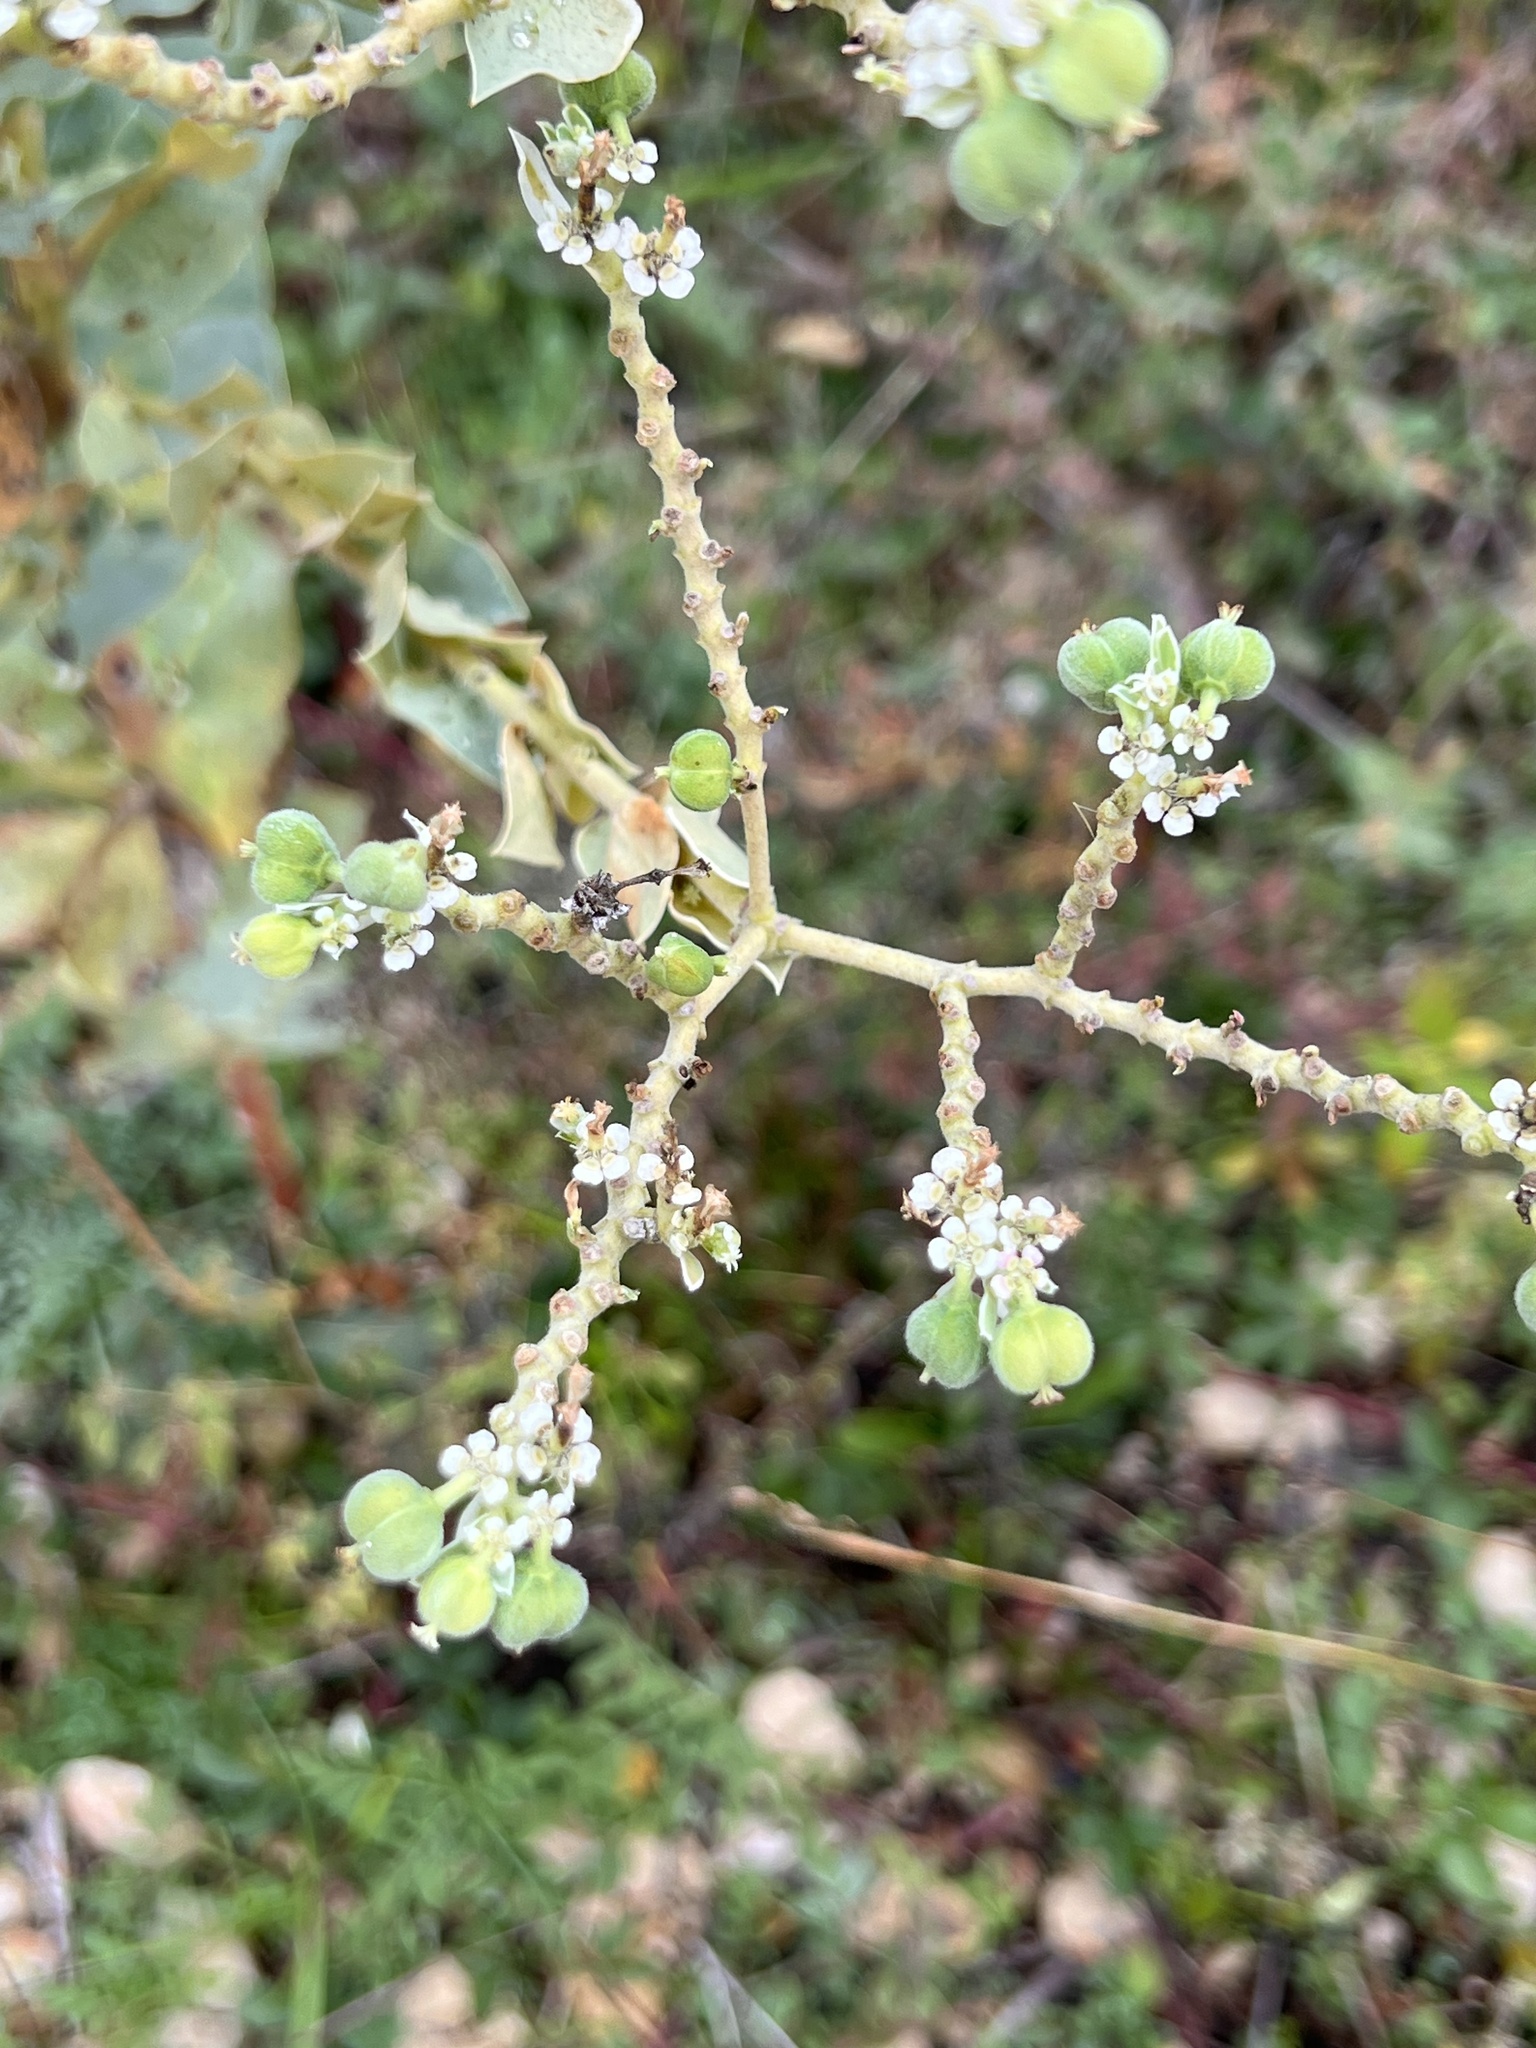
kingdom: Plantae
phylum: Tracheophyta
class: Magnoliopsida
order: Malpighiales
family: Euphorbiaceae
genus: Euphorbia
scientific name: Euphorbia marginata
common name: Ghostweed
